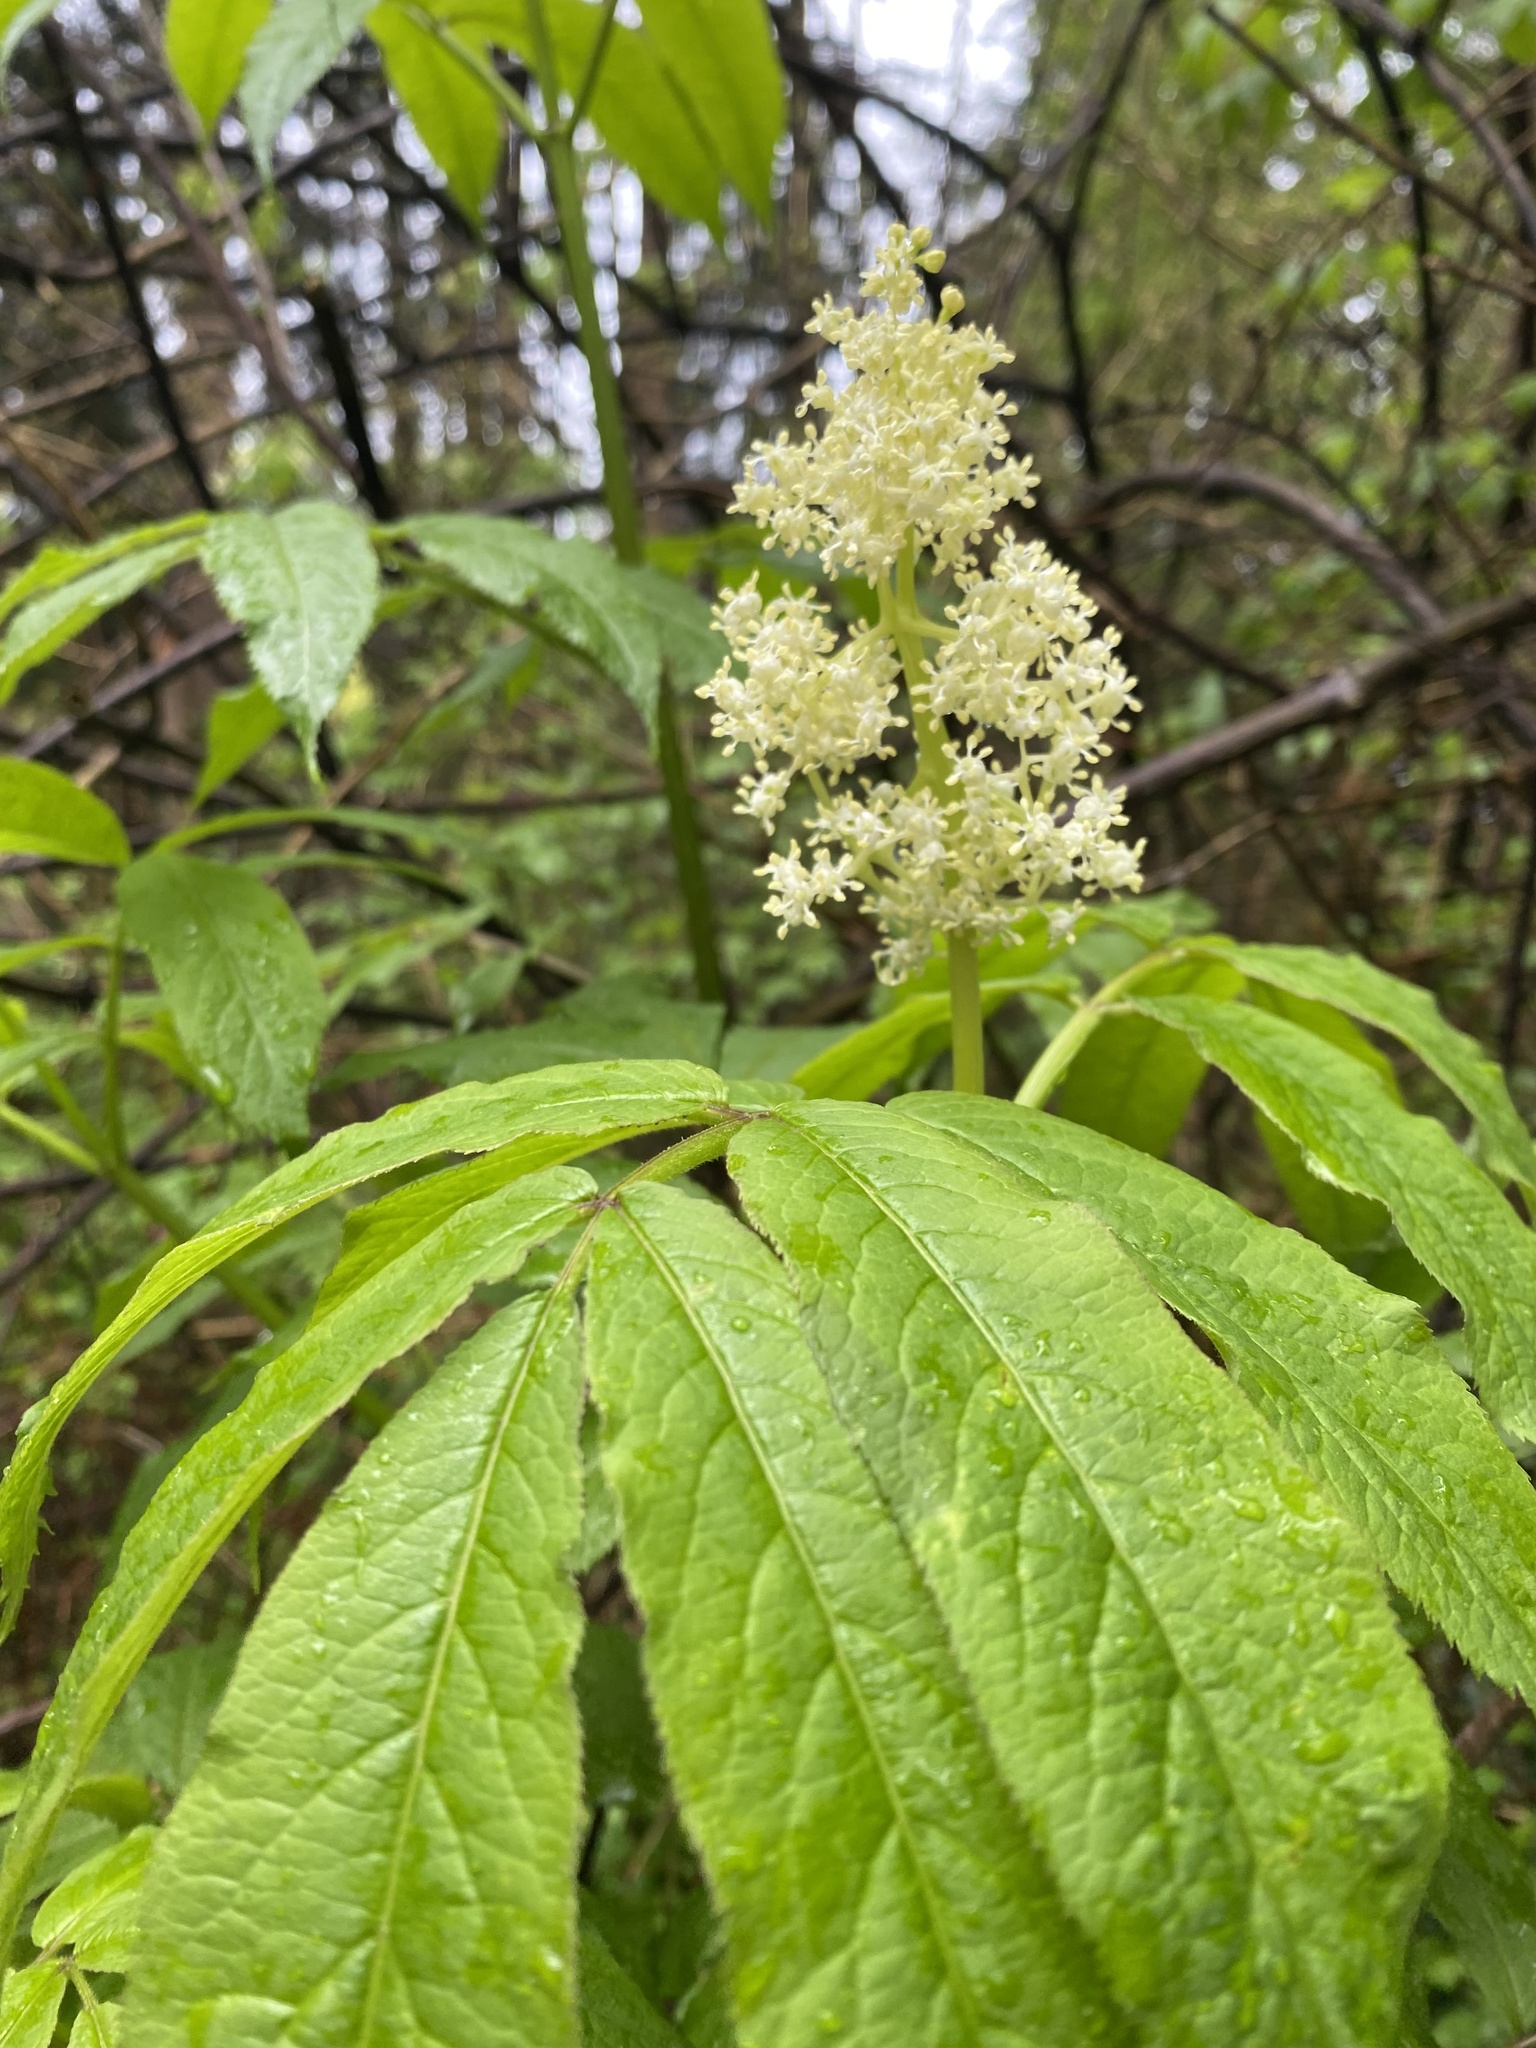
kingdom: Plantae
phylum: Tracheophyta
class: Magnoliopsida
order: Dipsacales
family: Viburnaceae
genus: Sambucus
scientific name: Sambucus racemosa
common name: Red-berried elder
